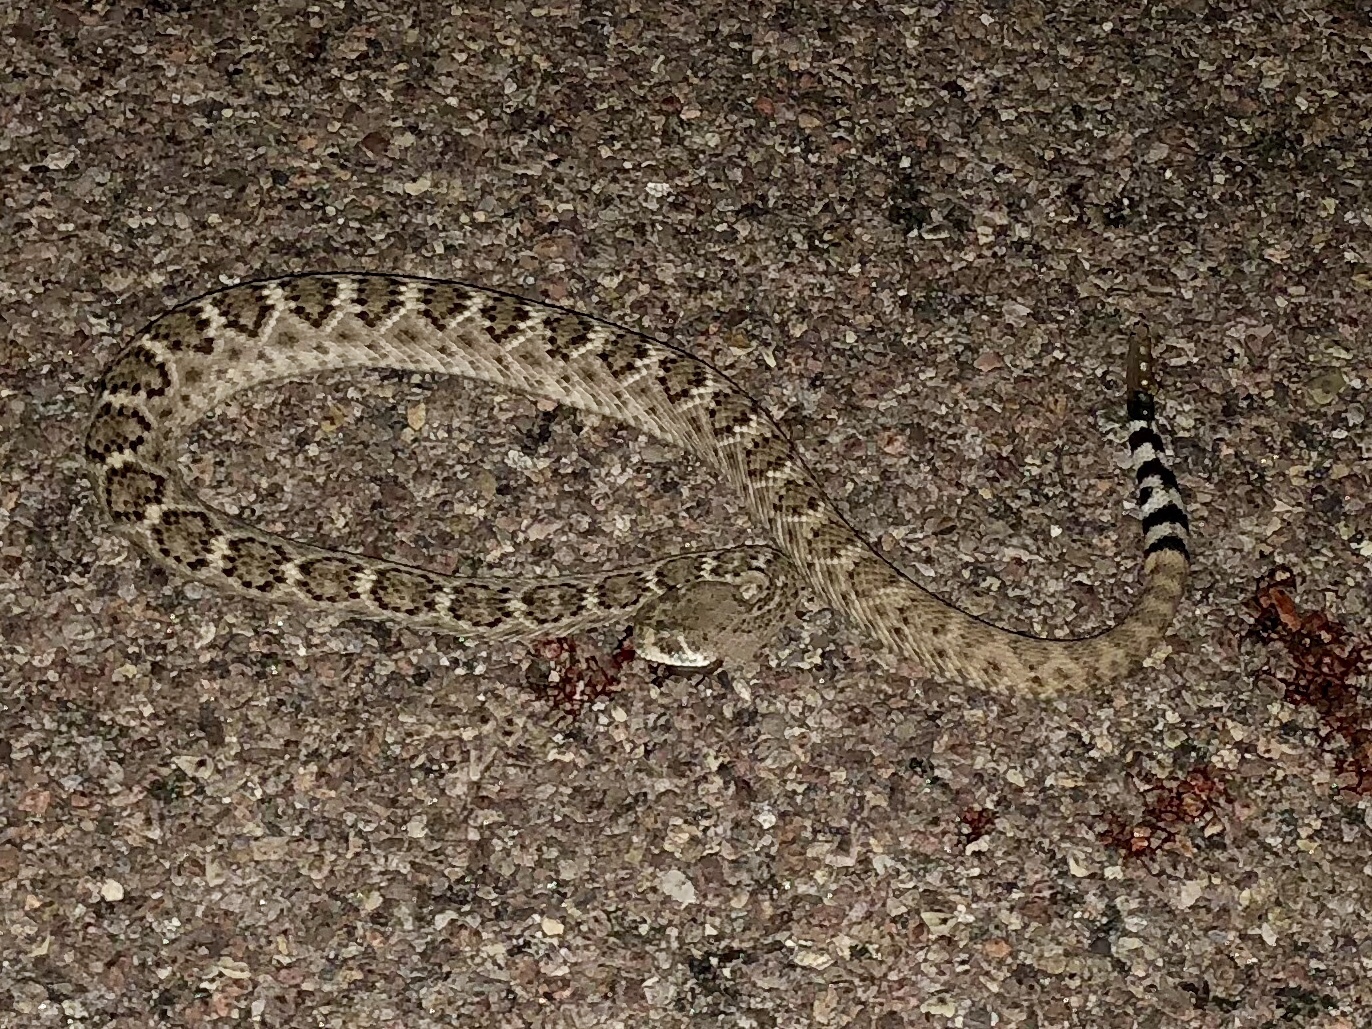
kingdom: Animalia
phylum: Chordata
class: Squamata
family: Viperidae
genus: Crotalus
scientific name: Crotalus atrox
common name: Western diamond-backed rattlesnake
